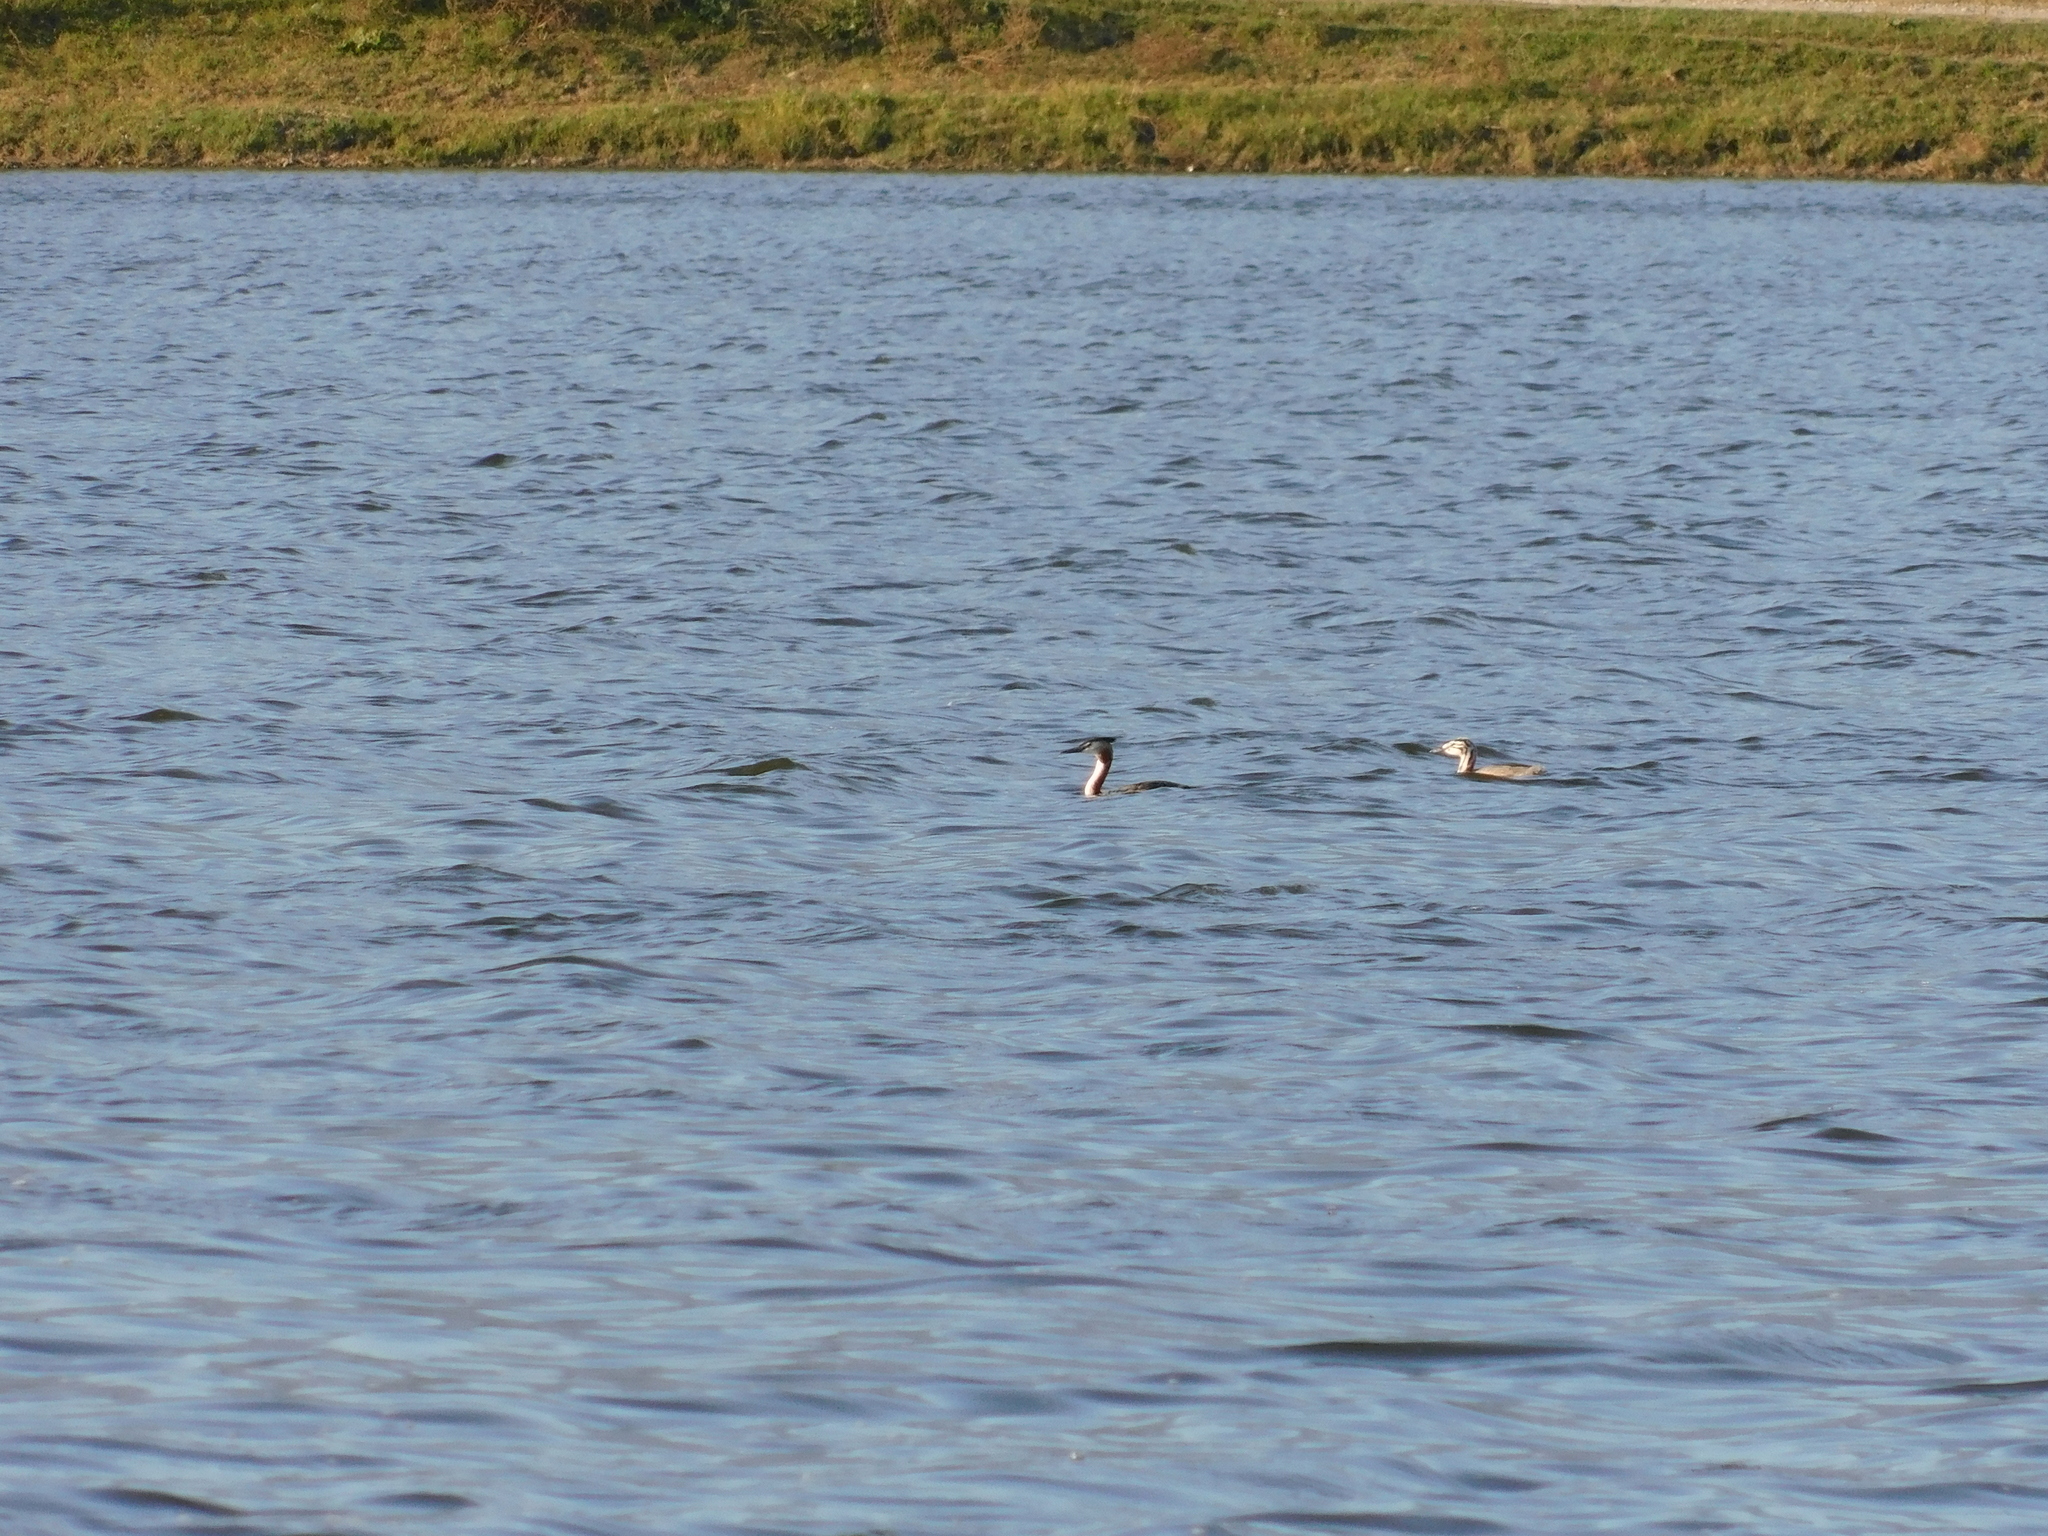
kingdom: Animalia
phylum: Chordata
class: Aves
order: Podicipediformes
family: Podicipedidae
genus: Podiceps
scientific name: Podiceps cristatus
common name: Great crested grebe
